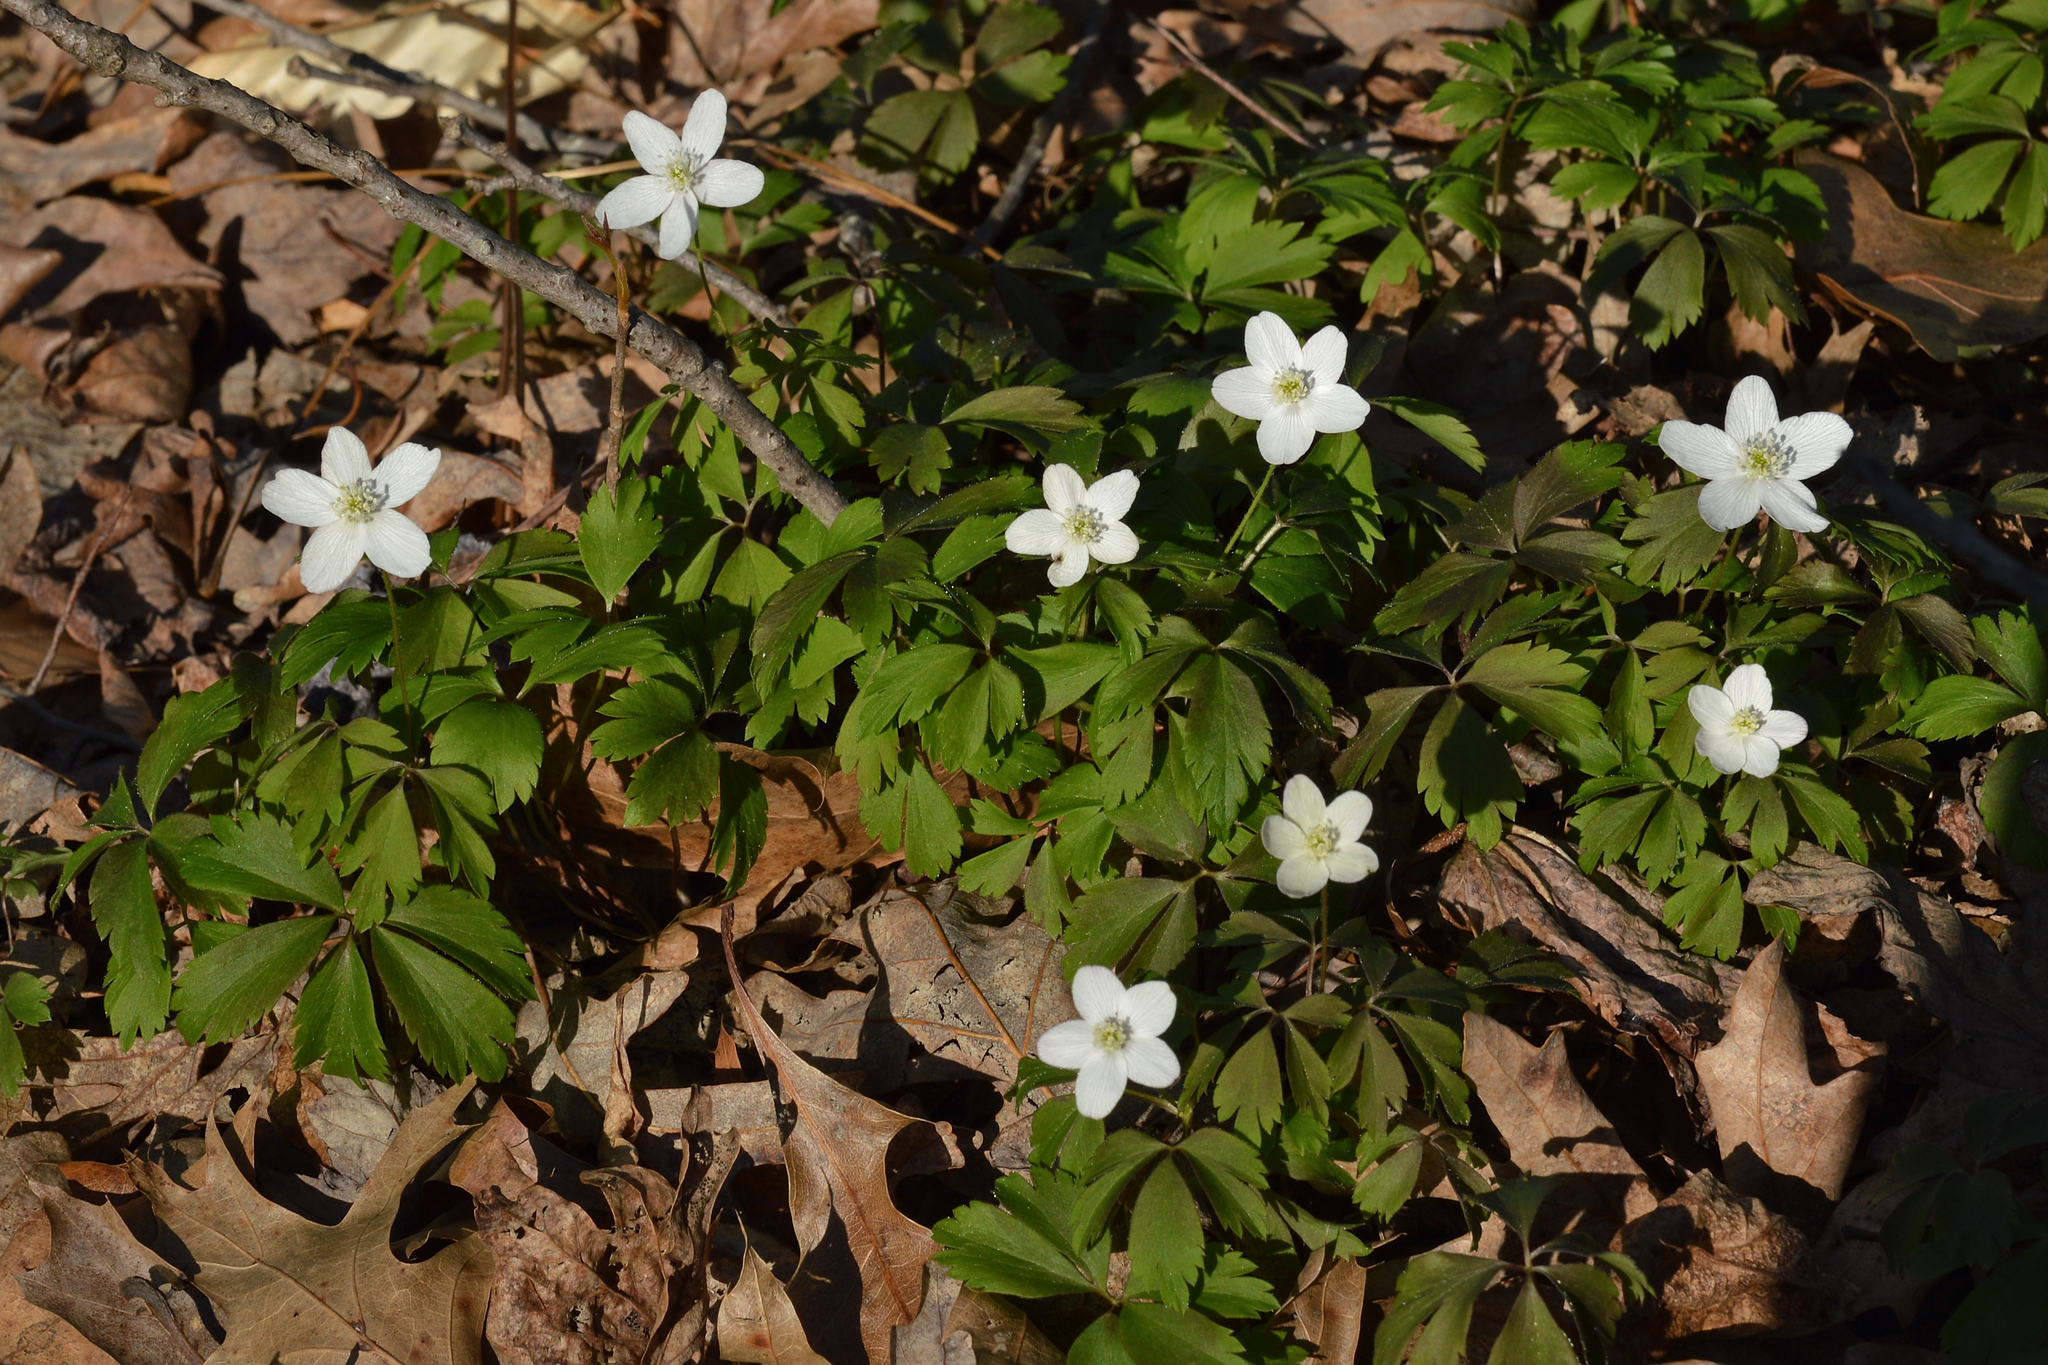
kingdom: Plantae
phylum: Tracheophyta
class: Magnoliopsida
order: Ranunculales
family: Ranunculaceae
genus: Anemone
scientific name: Anemone quinquefolia
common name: Wood anemone
